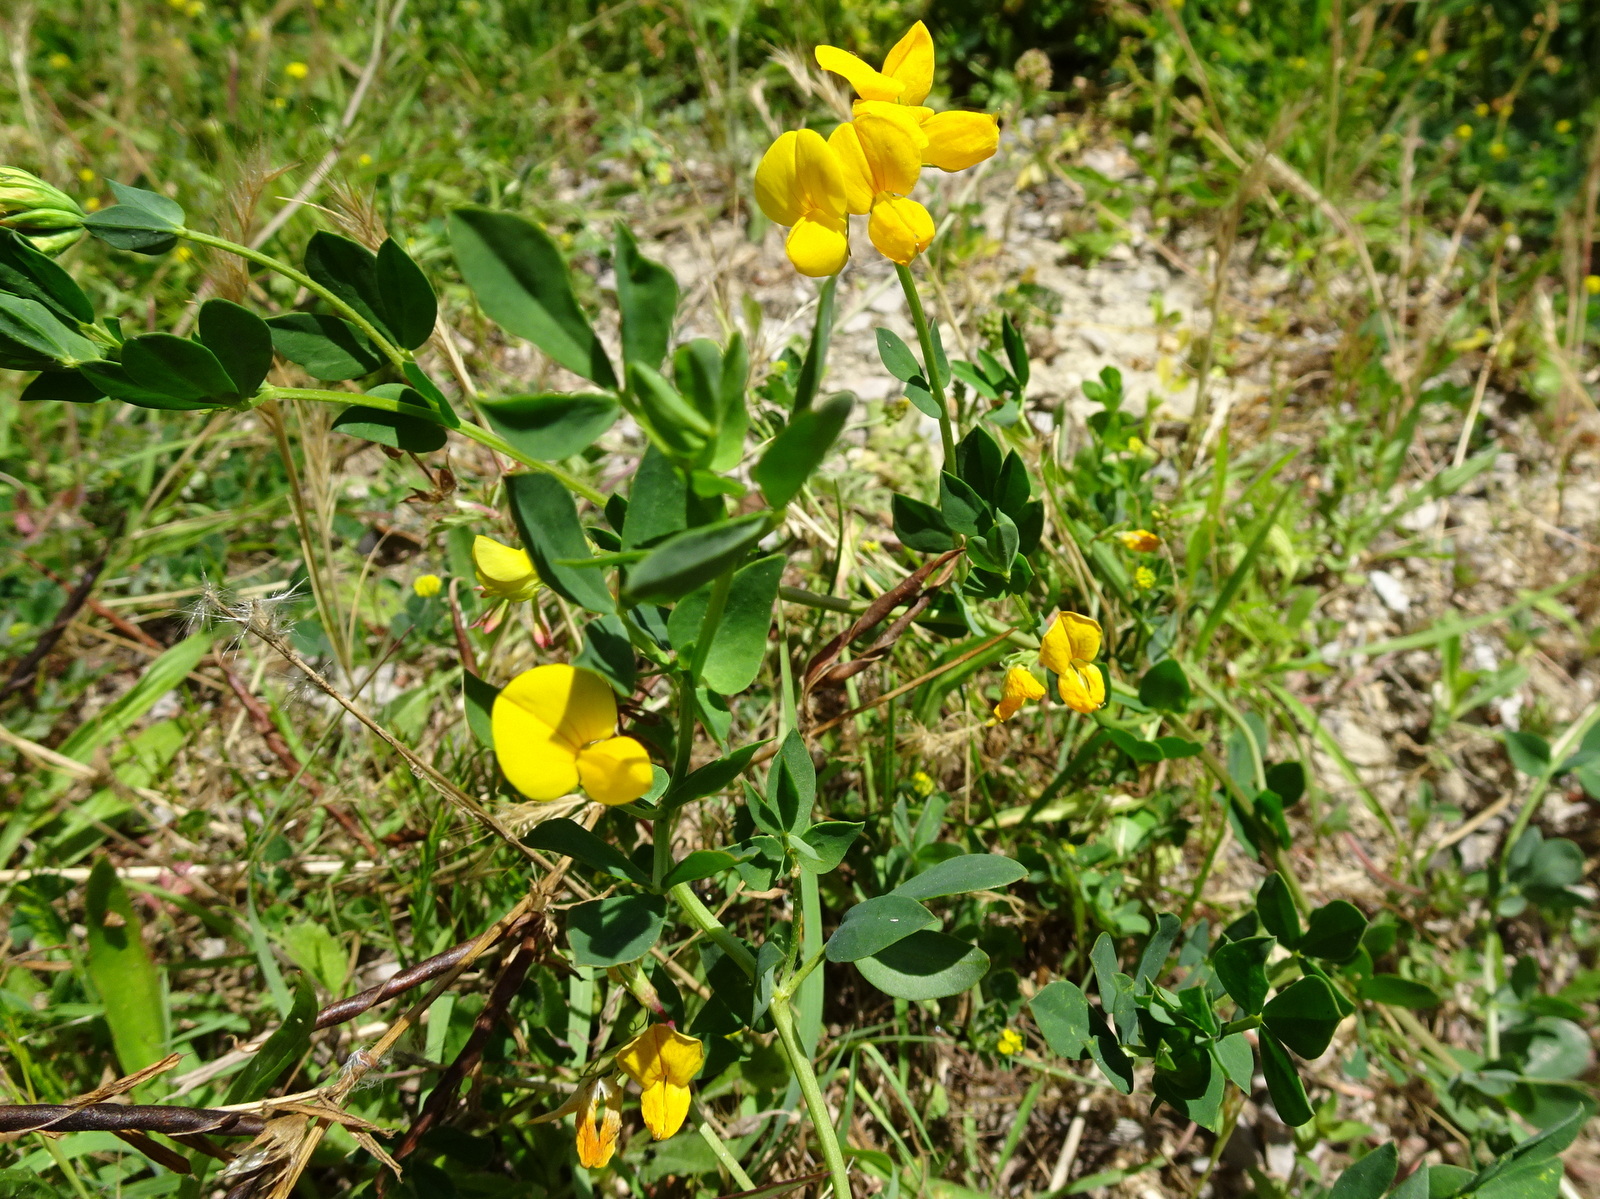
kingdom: Plantae
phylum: Tracheophyta
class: Magnoliopsida
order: Fabales
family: Fabaceae
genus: Lotus
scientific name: Lotus corniculatus
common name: Common bird's-foot-trefoil
